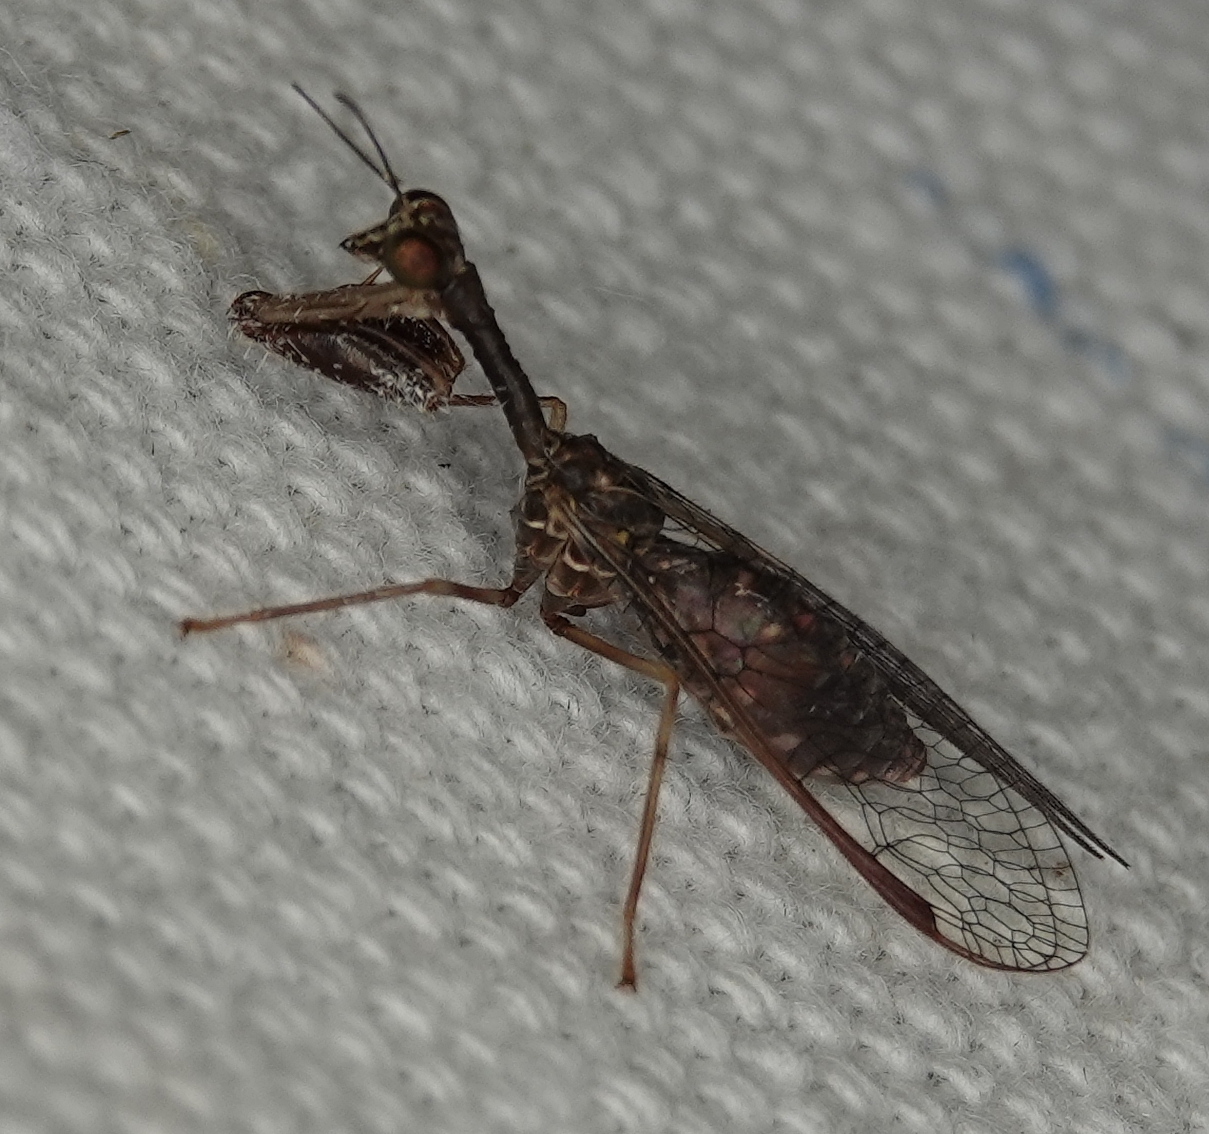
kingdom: Animalia
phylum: Arthropoda
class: Insecta
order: Neuroptera
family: Mantispidae
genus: Dicromantispa
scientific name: Dicromantispa sayi
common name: Say's mantidfly
